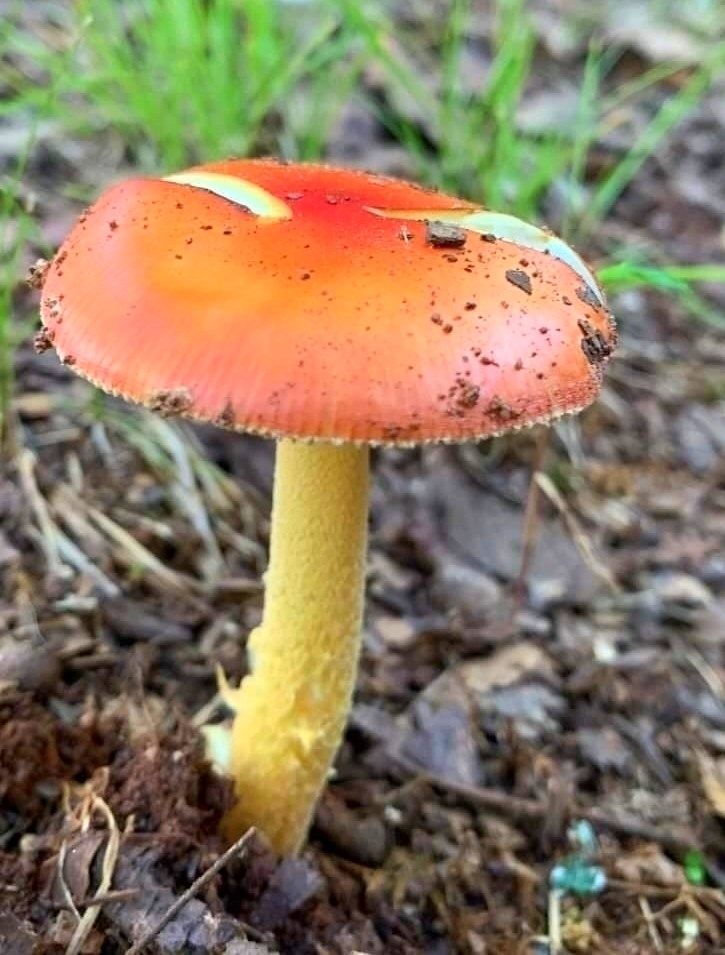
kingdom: Fungi
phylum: Basidiomycota
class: Agaricomycetes
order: Agaricales
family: Amanitaceae
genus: Amanita
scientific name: Amanita parcivolvata
